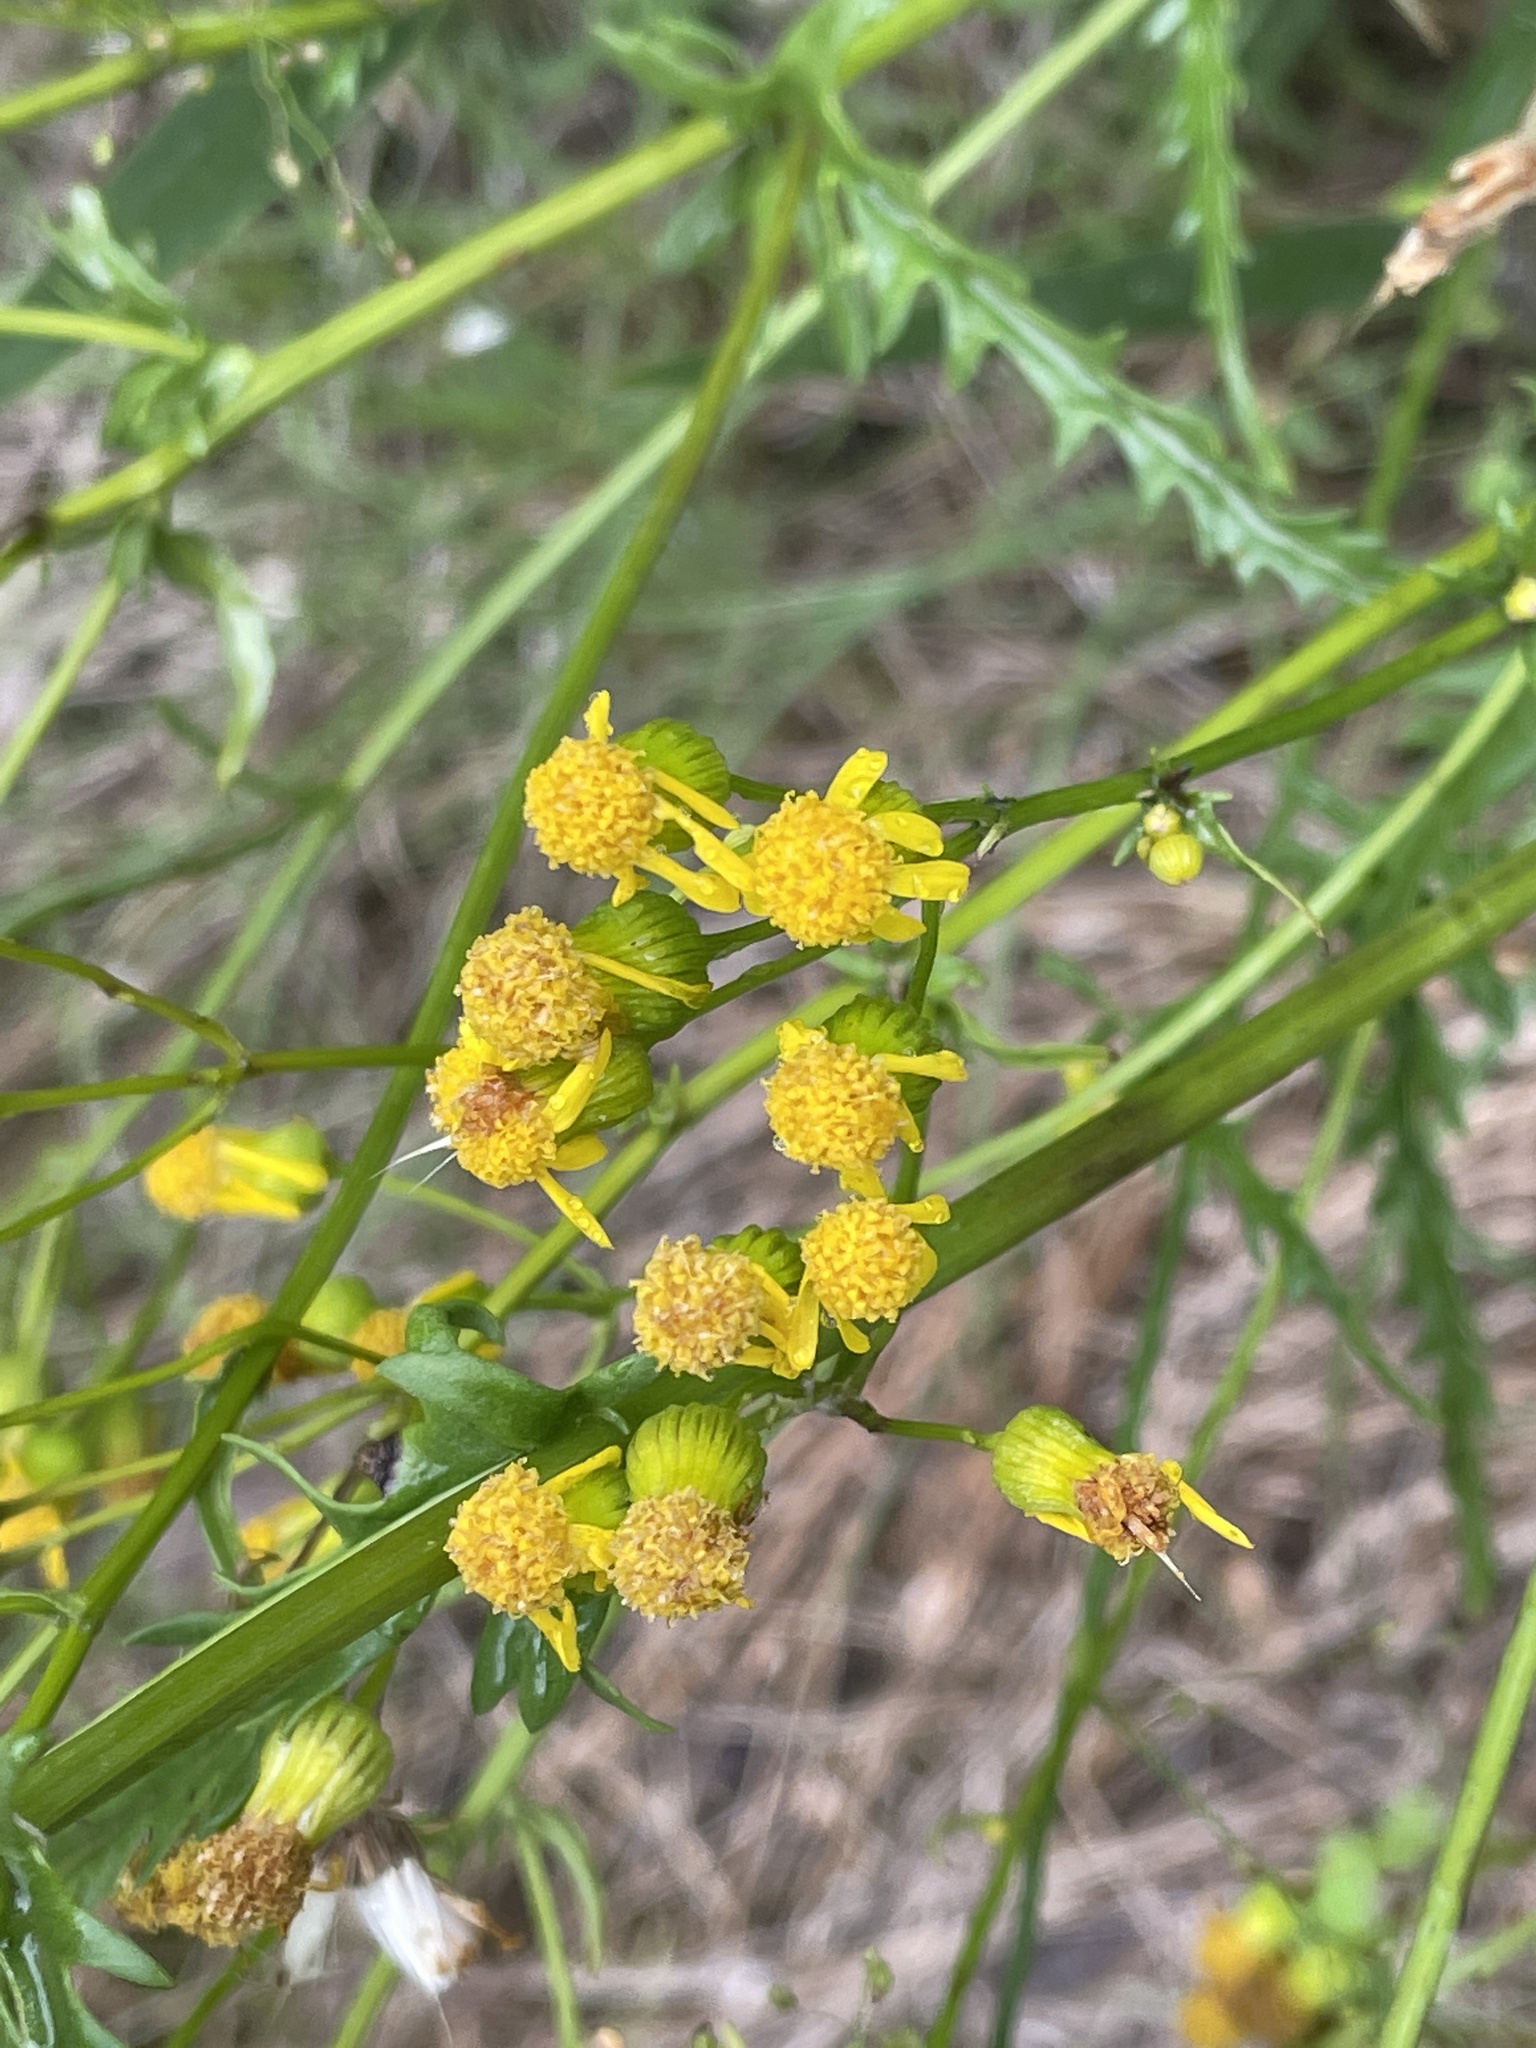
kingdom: Plantae
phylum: Tracheophyta
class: Magnoliopsida
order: Asterales
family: Asteraceae
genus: Packera
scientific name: Packera anonyma
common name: Small ragwort
